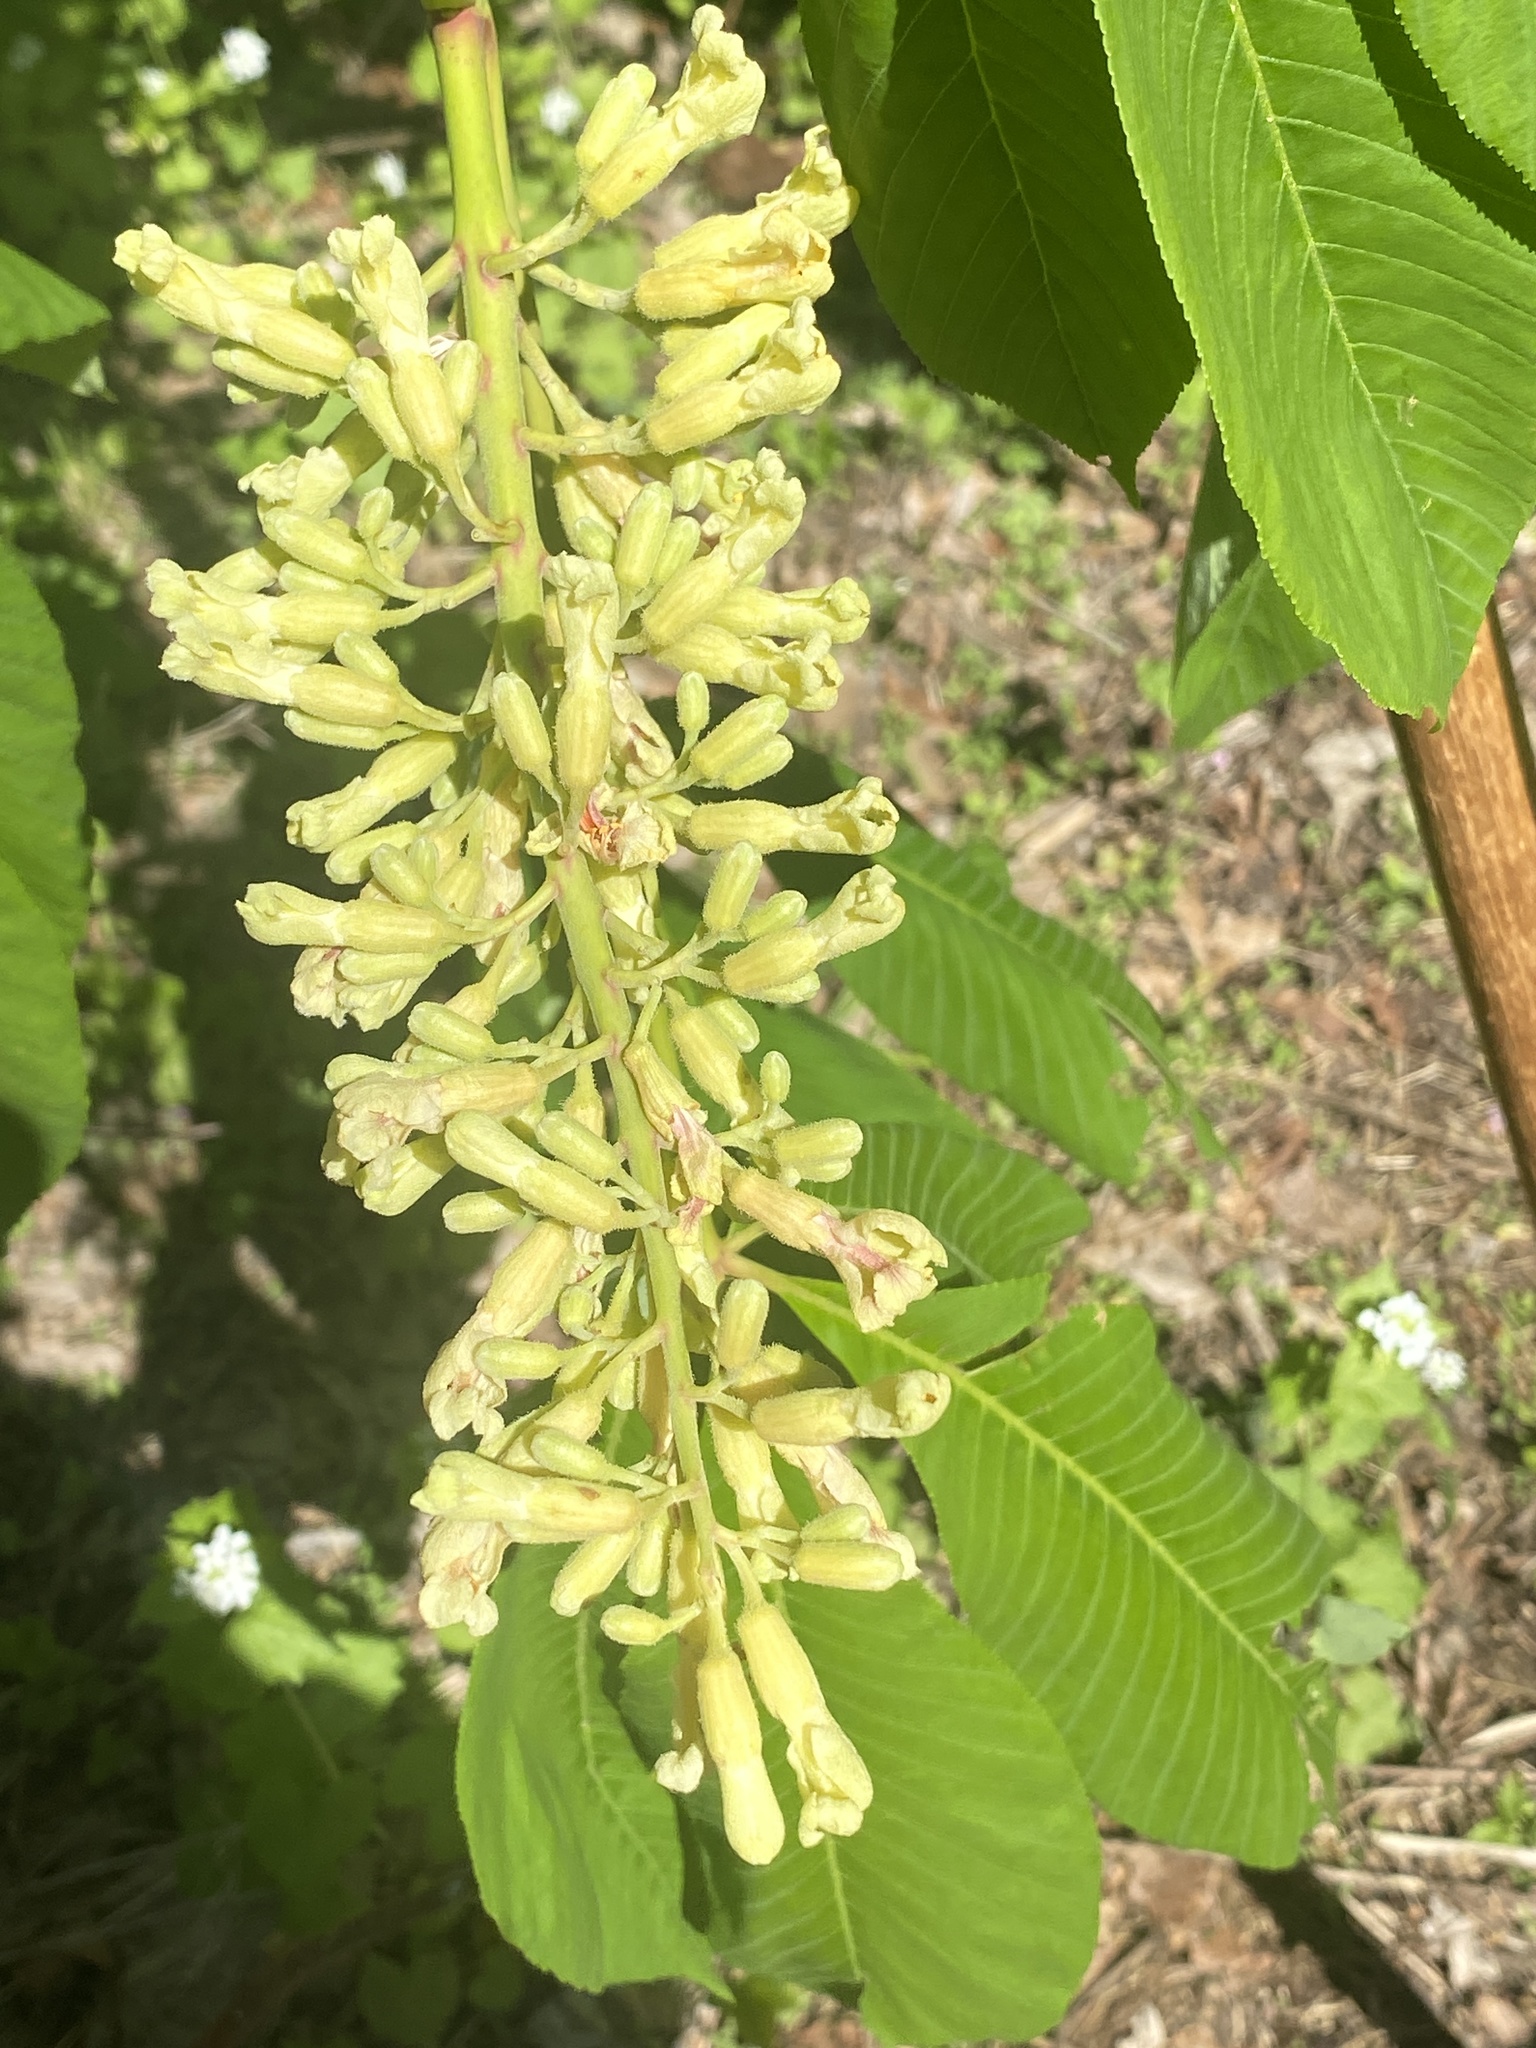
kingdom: Plantae
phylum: Tracheophyta
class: Magnoliopsida
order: Sapindales
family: Sapindaceae
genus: Aesculus
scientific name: Aesculus flava
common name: Yellow buckeye
